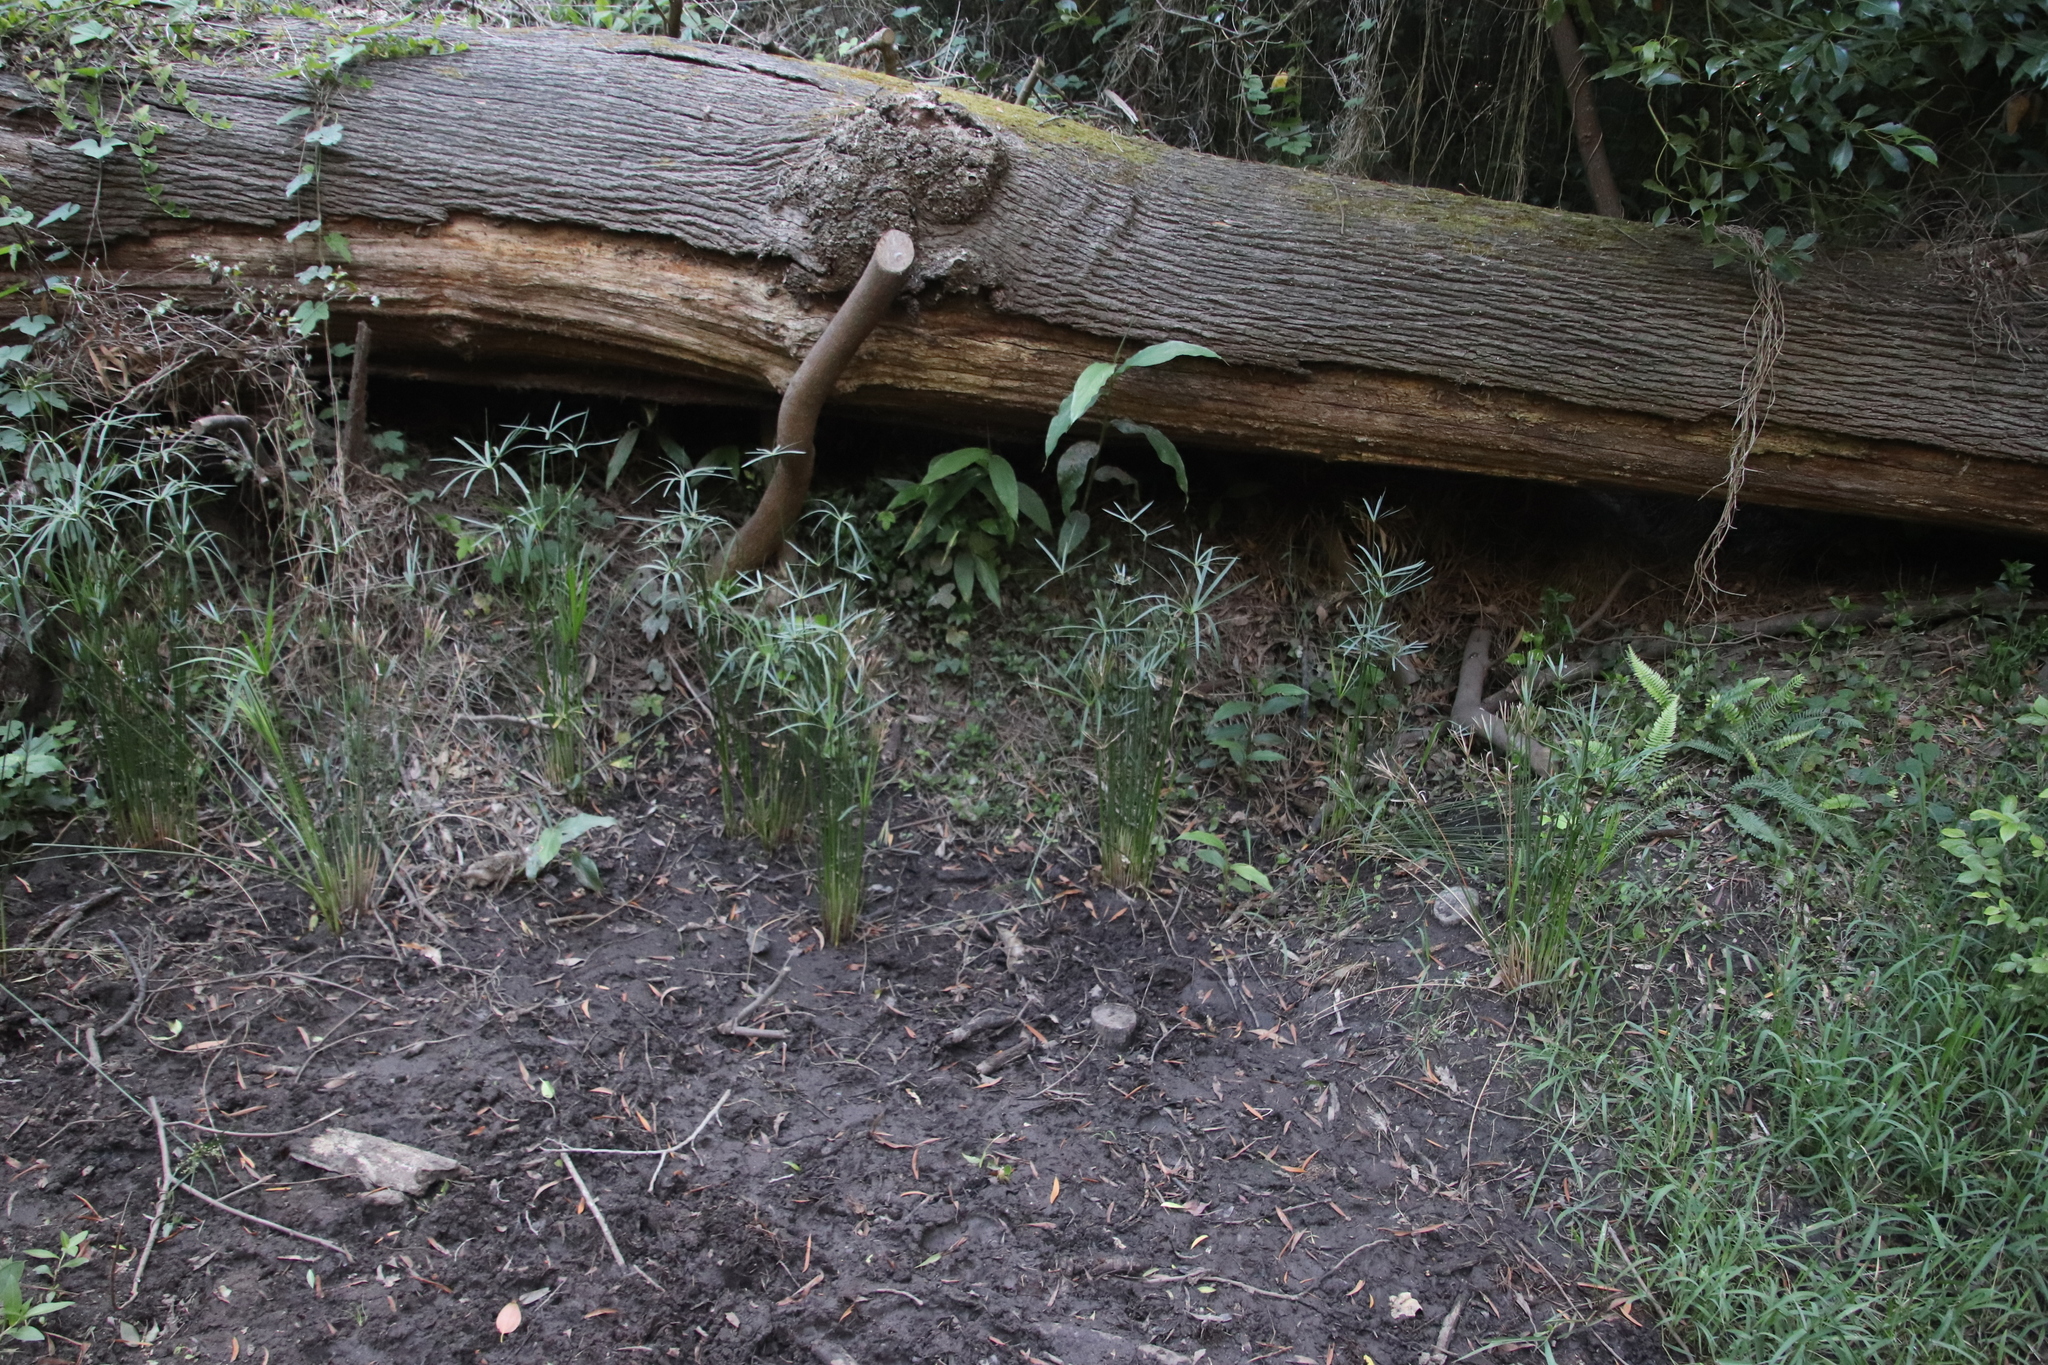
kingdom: Plantae
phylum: Tracheophyta
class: Liliopsida
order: Poales
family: Cyperaceae
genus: Cyperus
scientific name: Cyperus textilis
